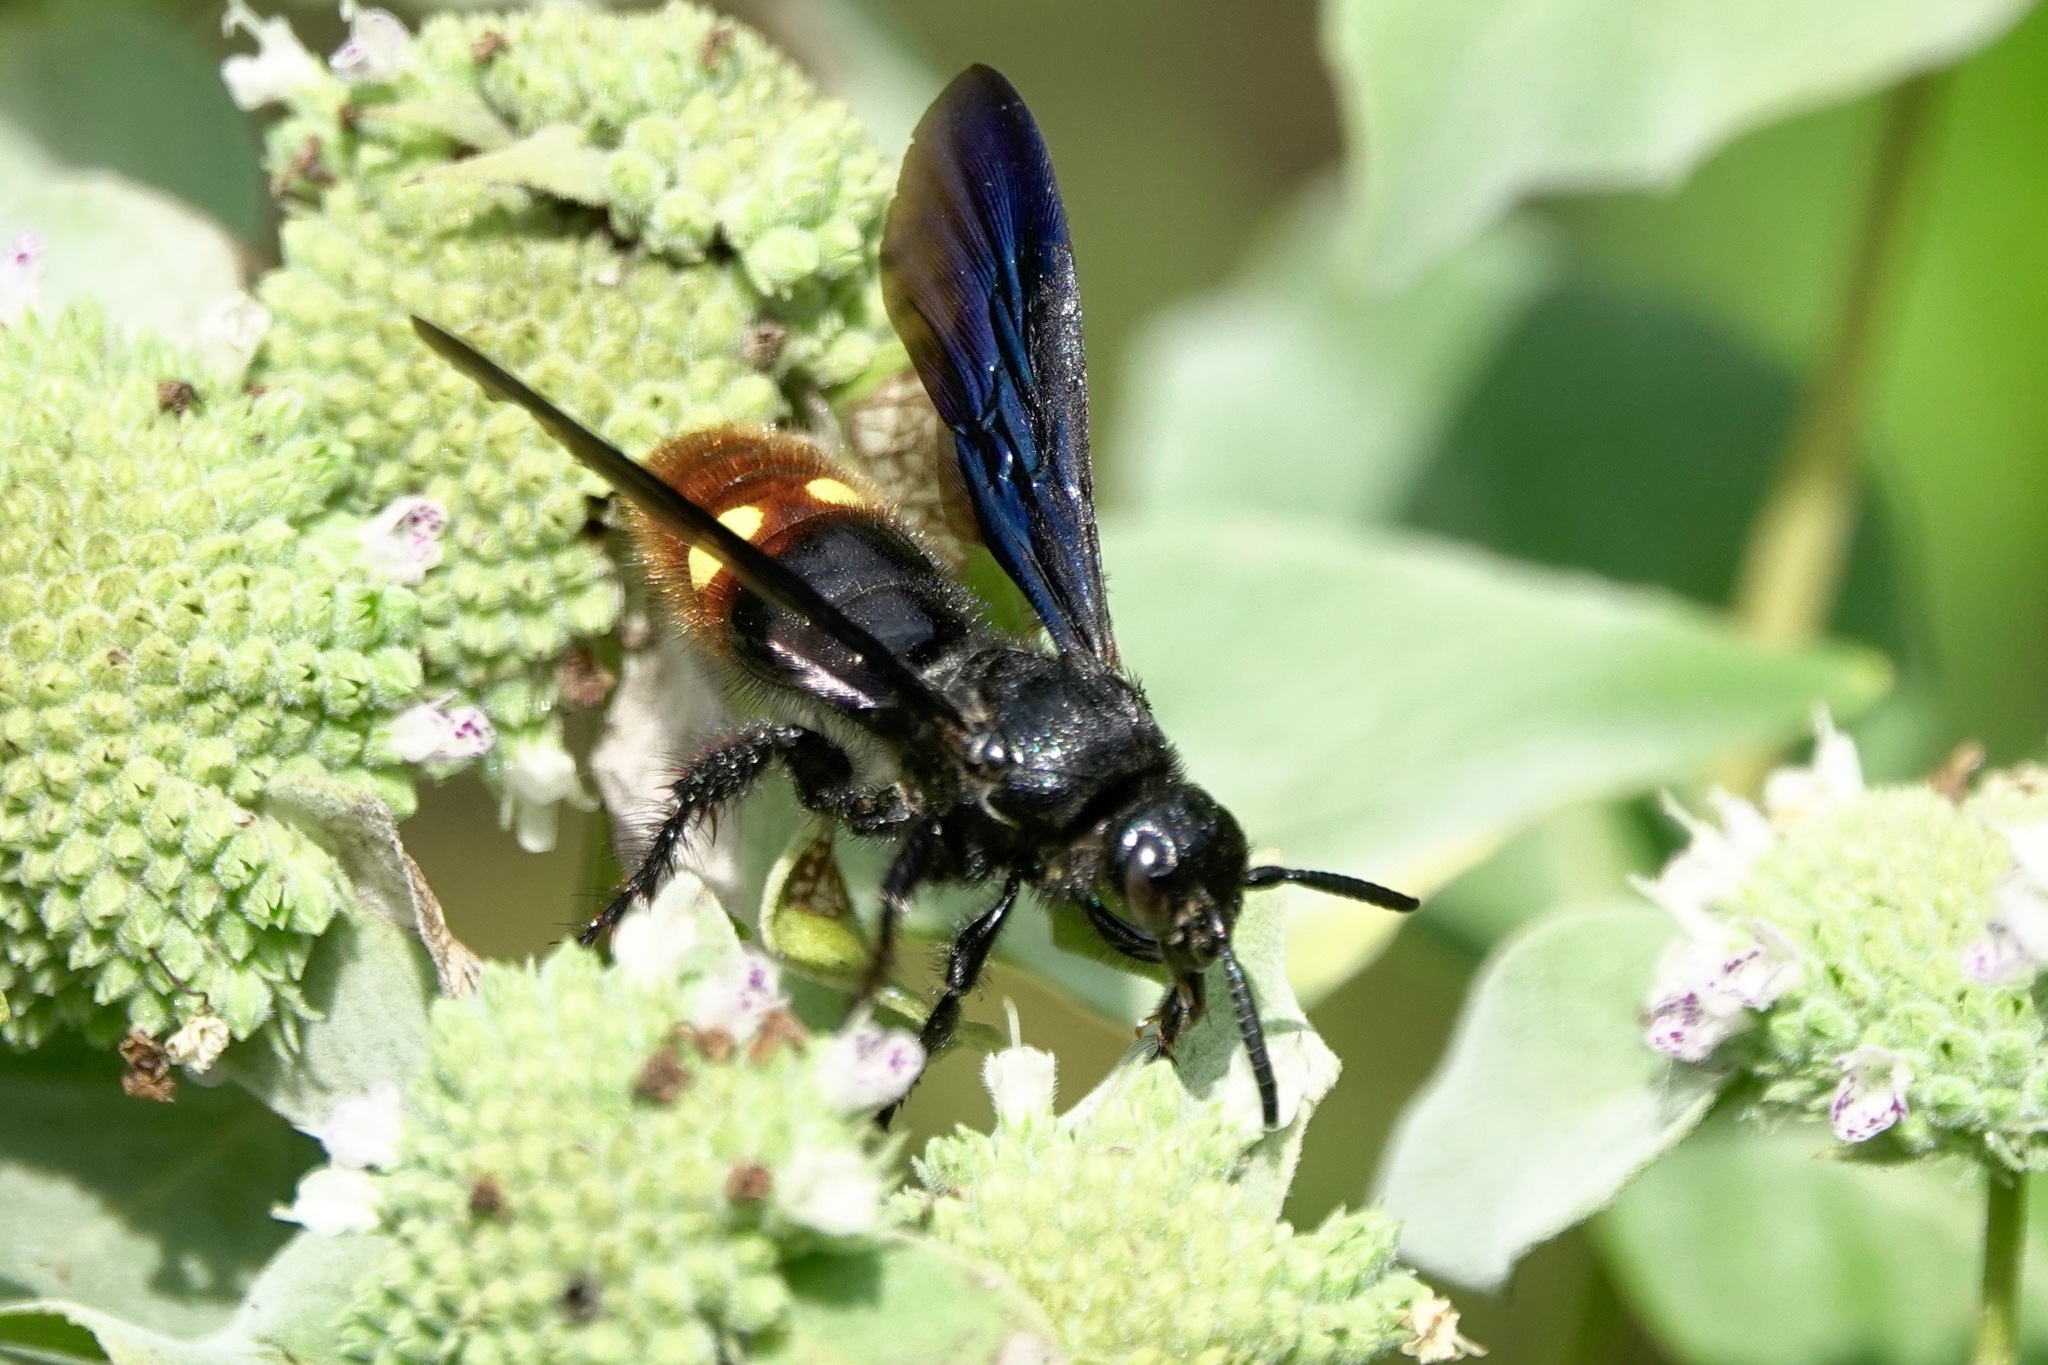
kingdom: Animalia
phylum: Arthropoda
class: Insecta
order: Hymenoptera
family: Scoliidae
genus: Scolia
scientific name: Scolia dubia
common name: Blue-winged scoliid wasp
